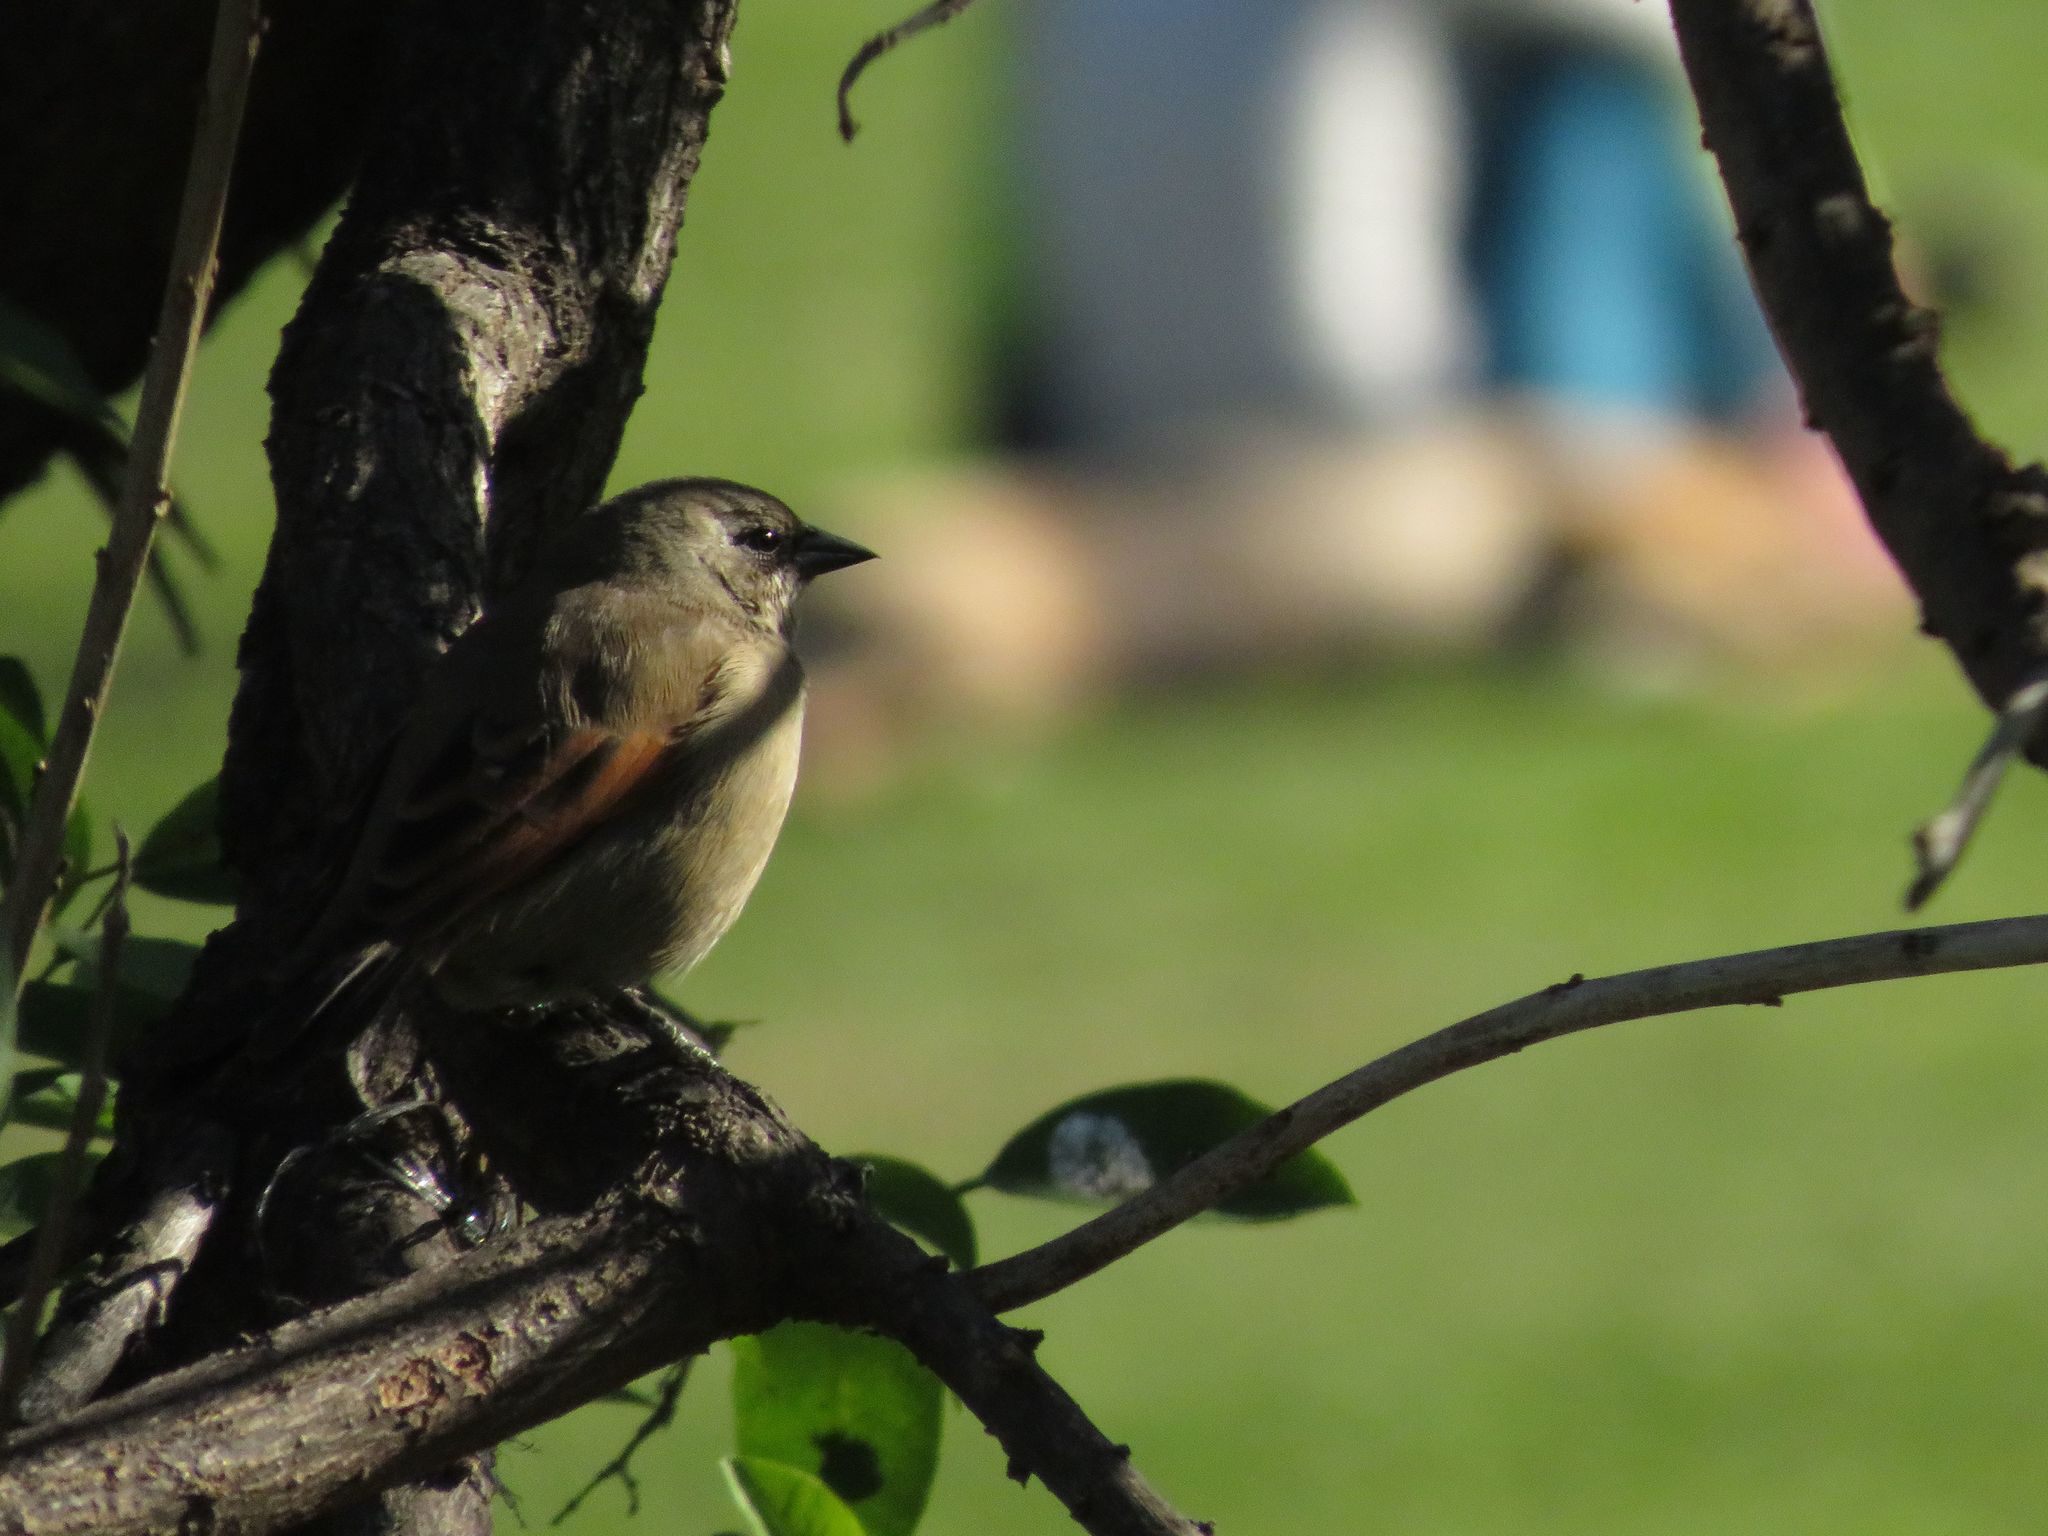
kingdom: Animalia
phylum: Chordata
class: Aves
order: Passeriformes
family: Icteridae
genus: Agelaioides
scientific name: Agelaioides badius
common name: Baywing
